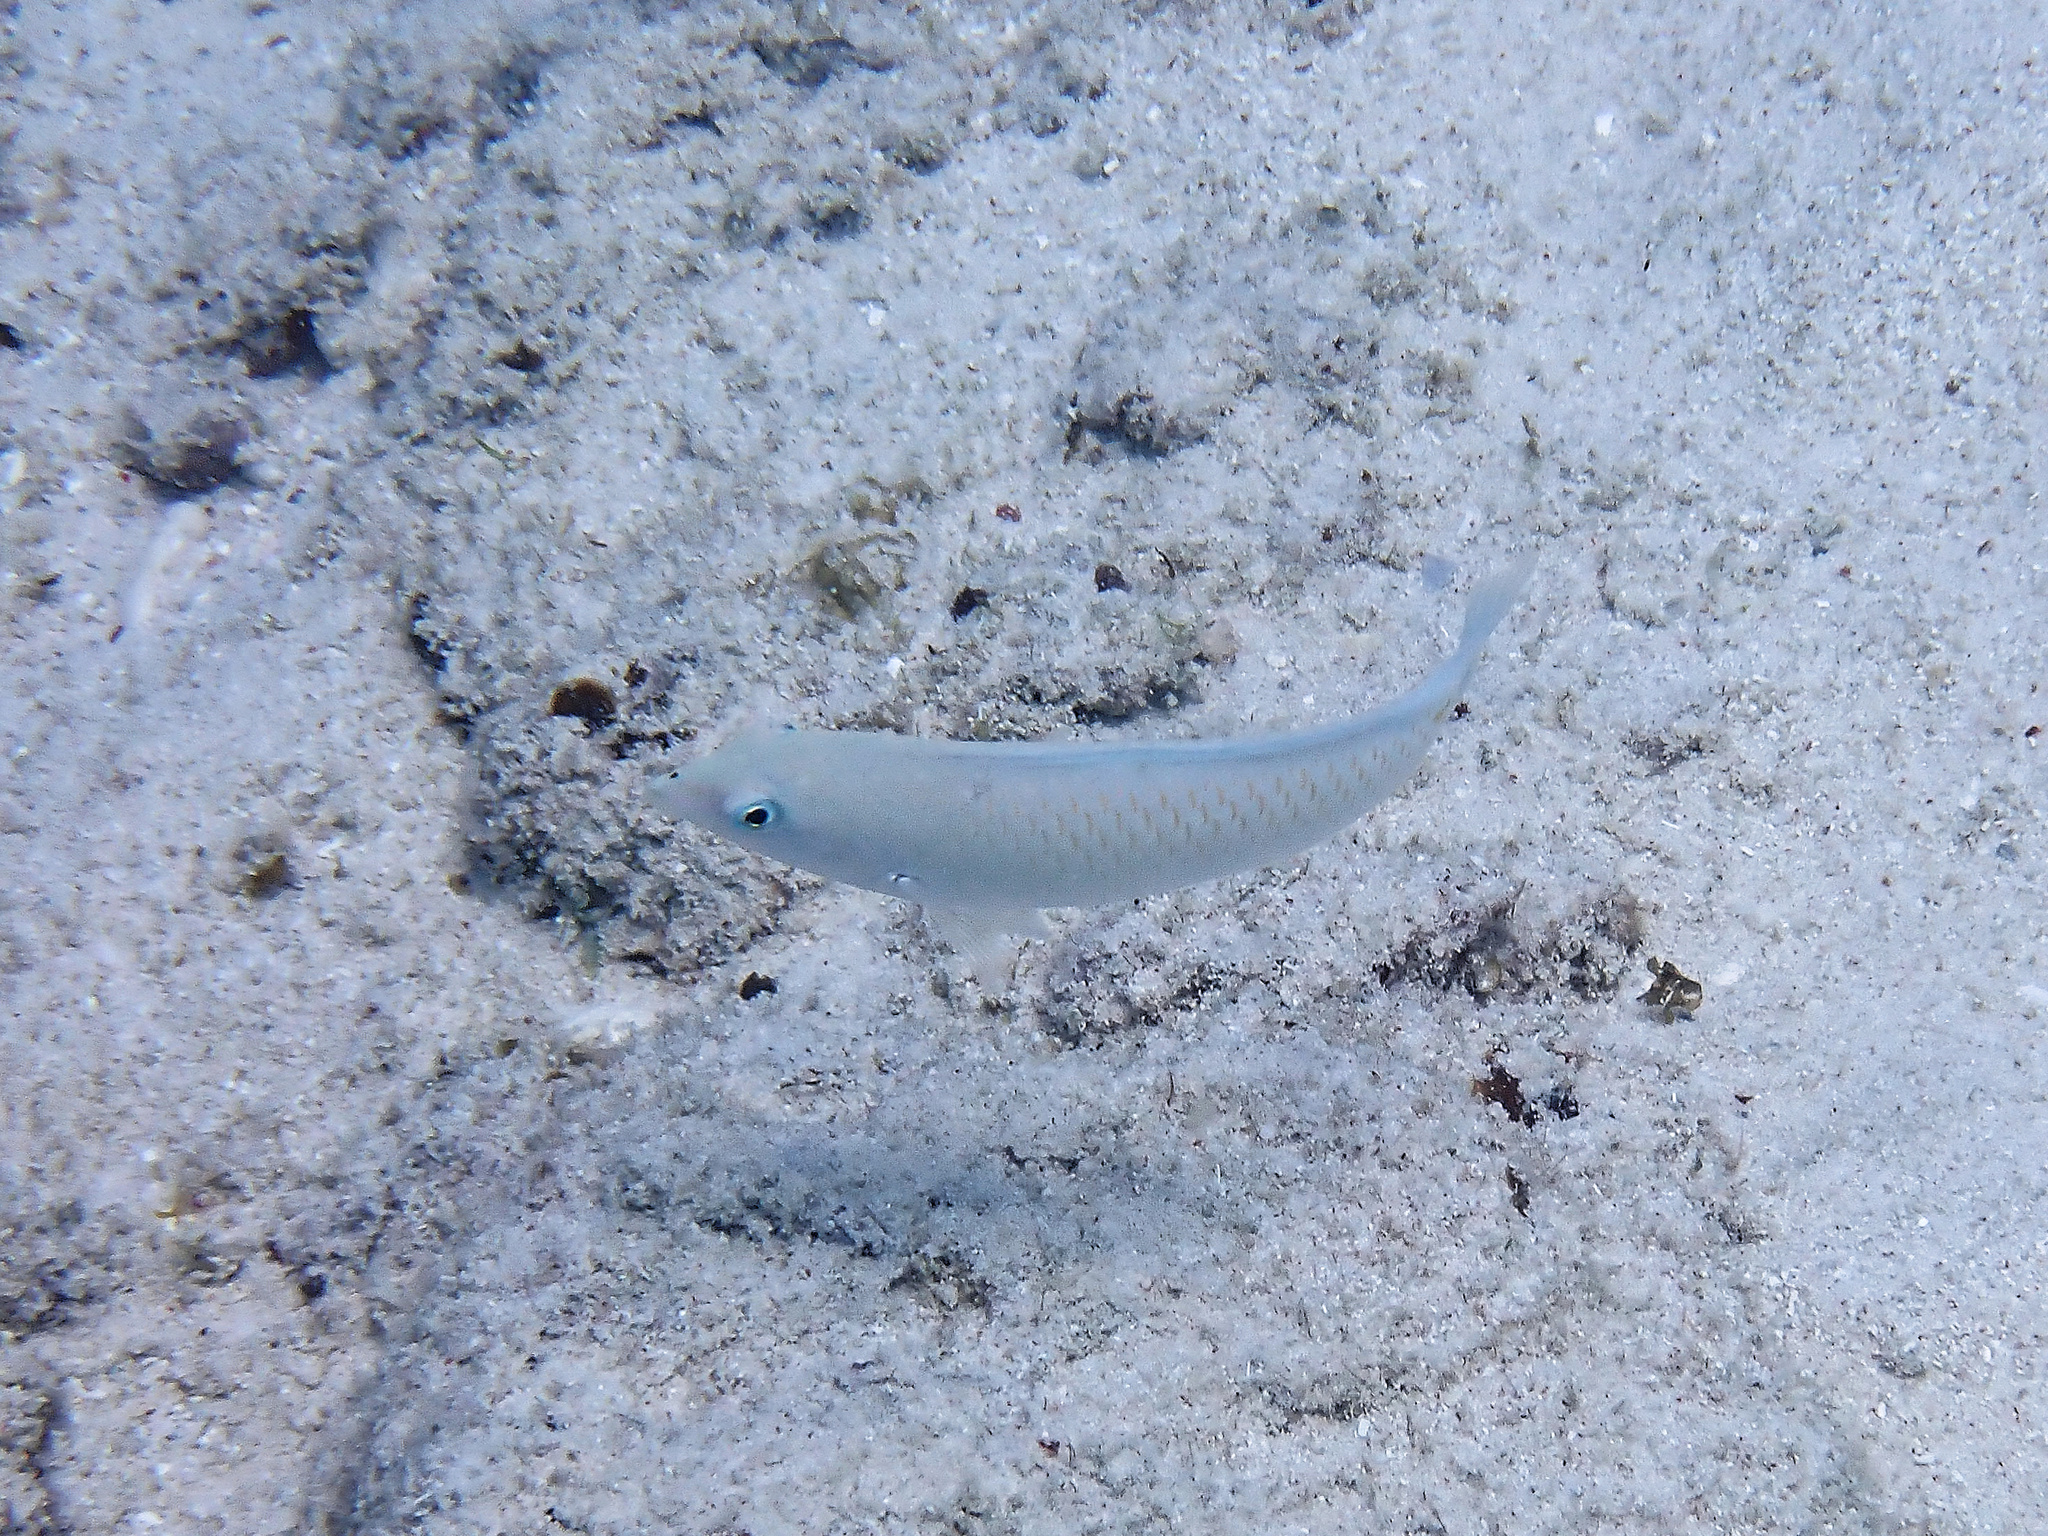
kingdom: Animalia
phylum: Chordata
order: Perciformes
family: Labridae
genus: Halichoeres
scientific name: Halichoeres trimaculatus
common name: Three-spot wrasse
